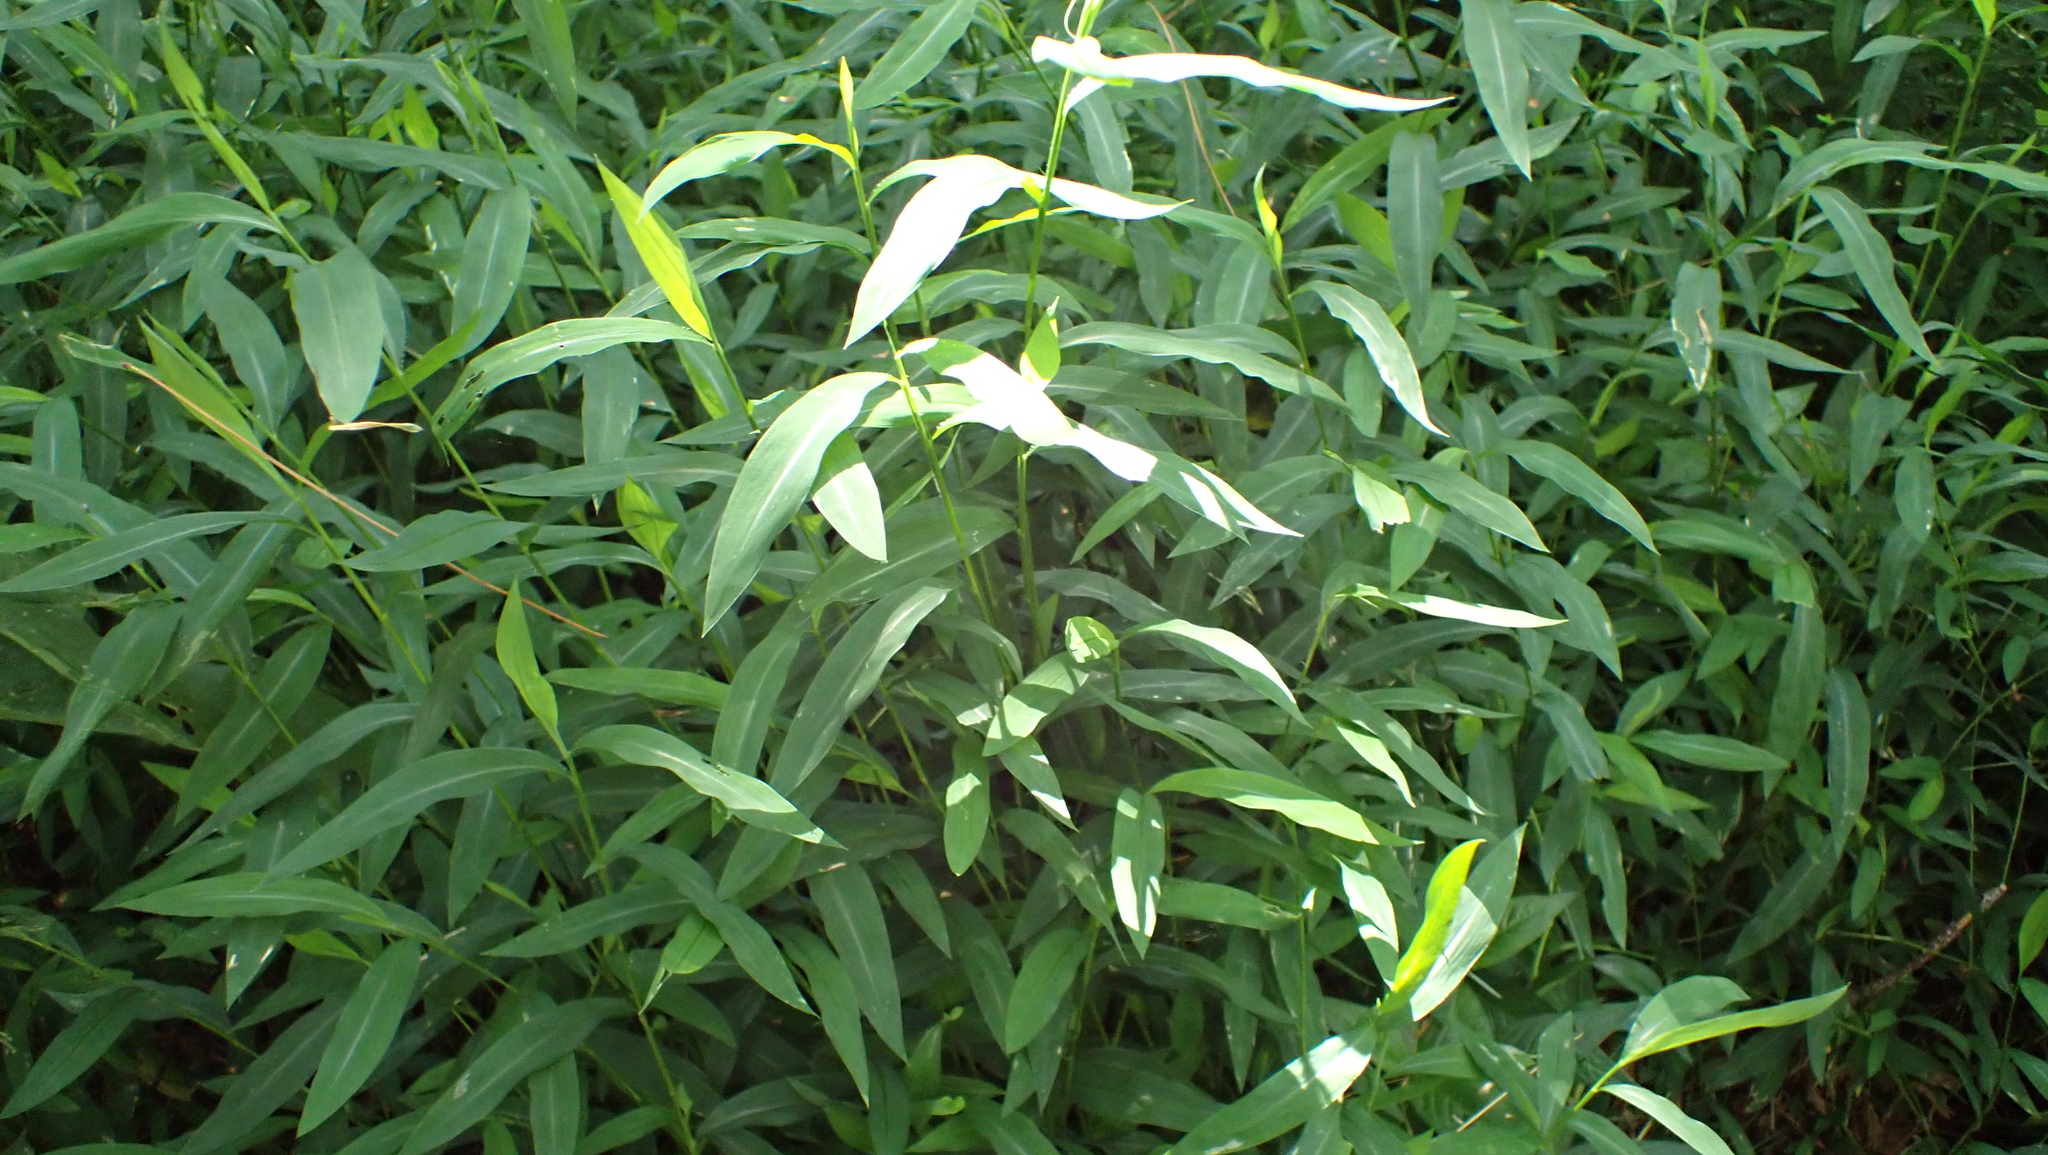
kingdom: Plantae
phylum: Tracheophyta
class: Liliopsida
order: Poales
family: Poaceae
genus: Microstegium
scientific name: Microstegium vimineum
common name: Japanese stiltgrass
